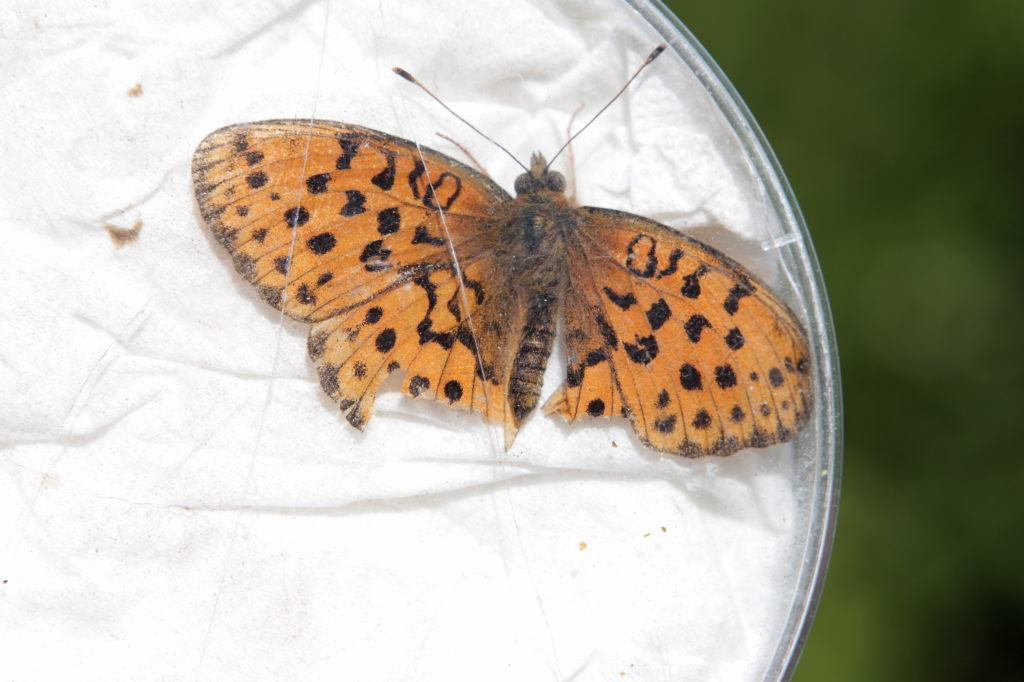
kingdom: Animalia
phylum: Arthropoda
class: Insecta
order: Lepidoptera
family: Nymphalidae
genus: Brenthis
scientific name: Brenthis daphne
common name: Marbled fritillary
